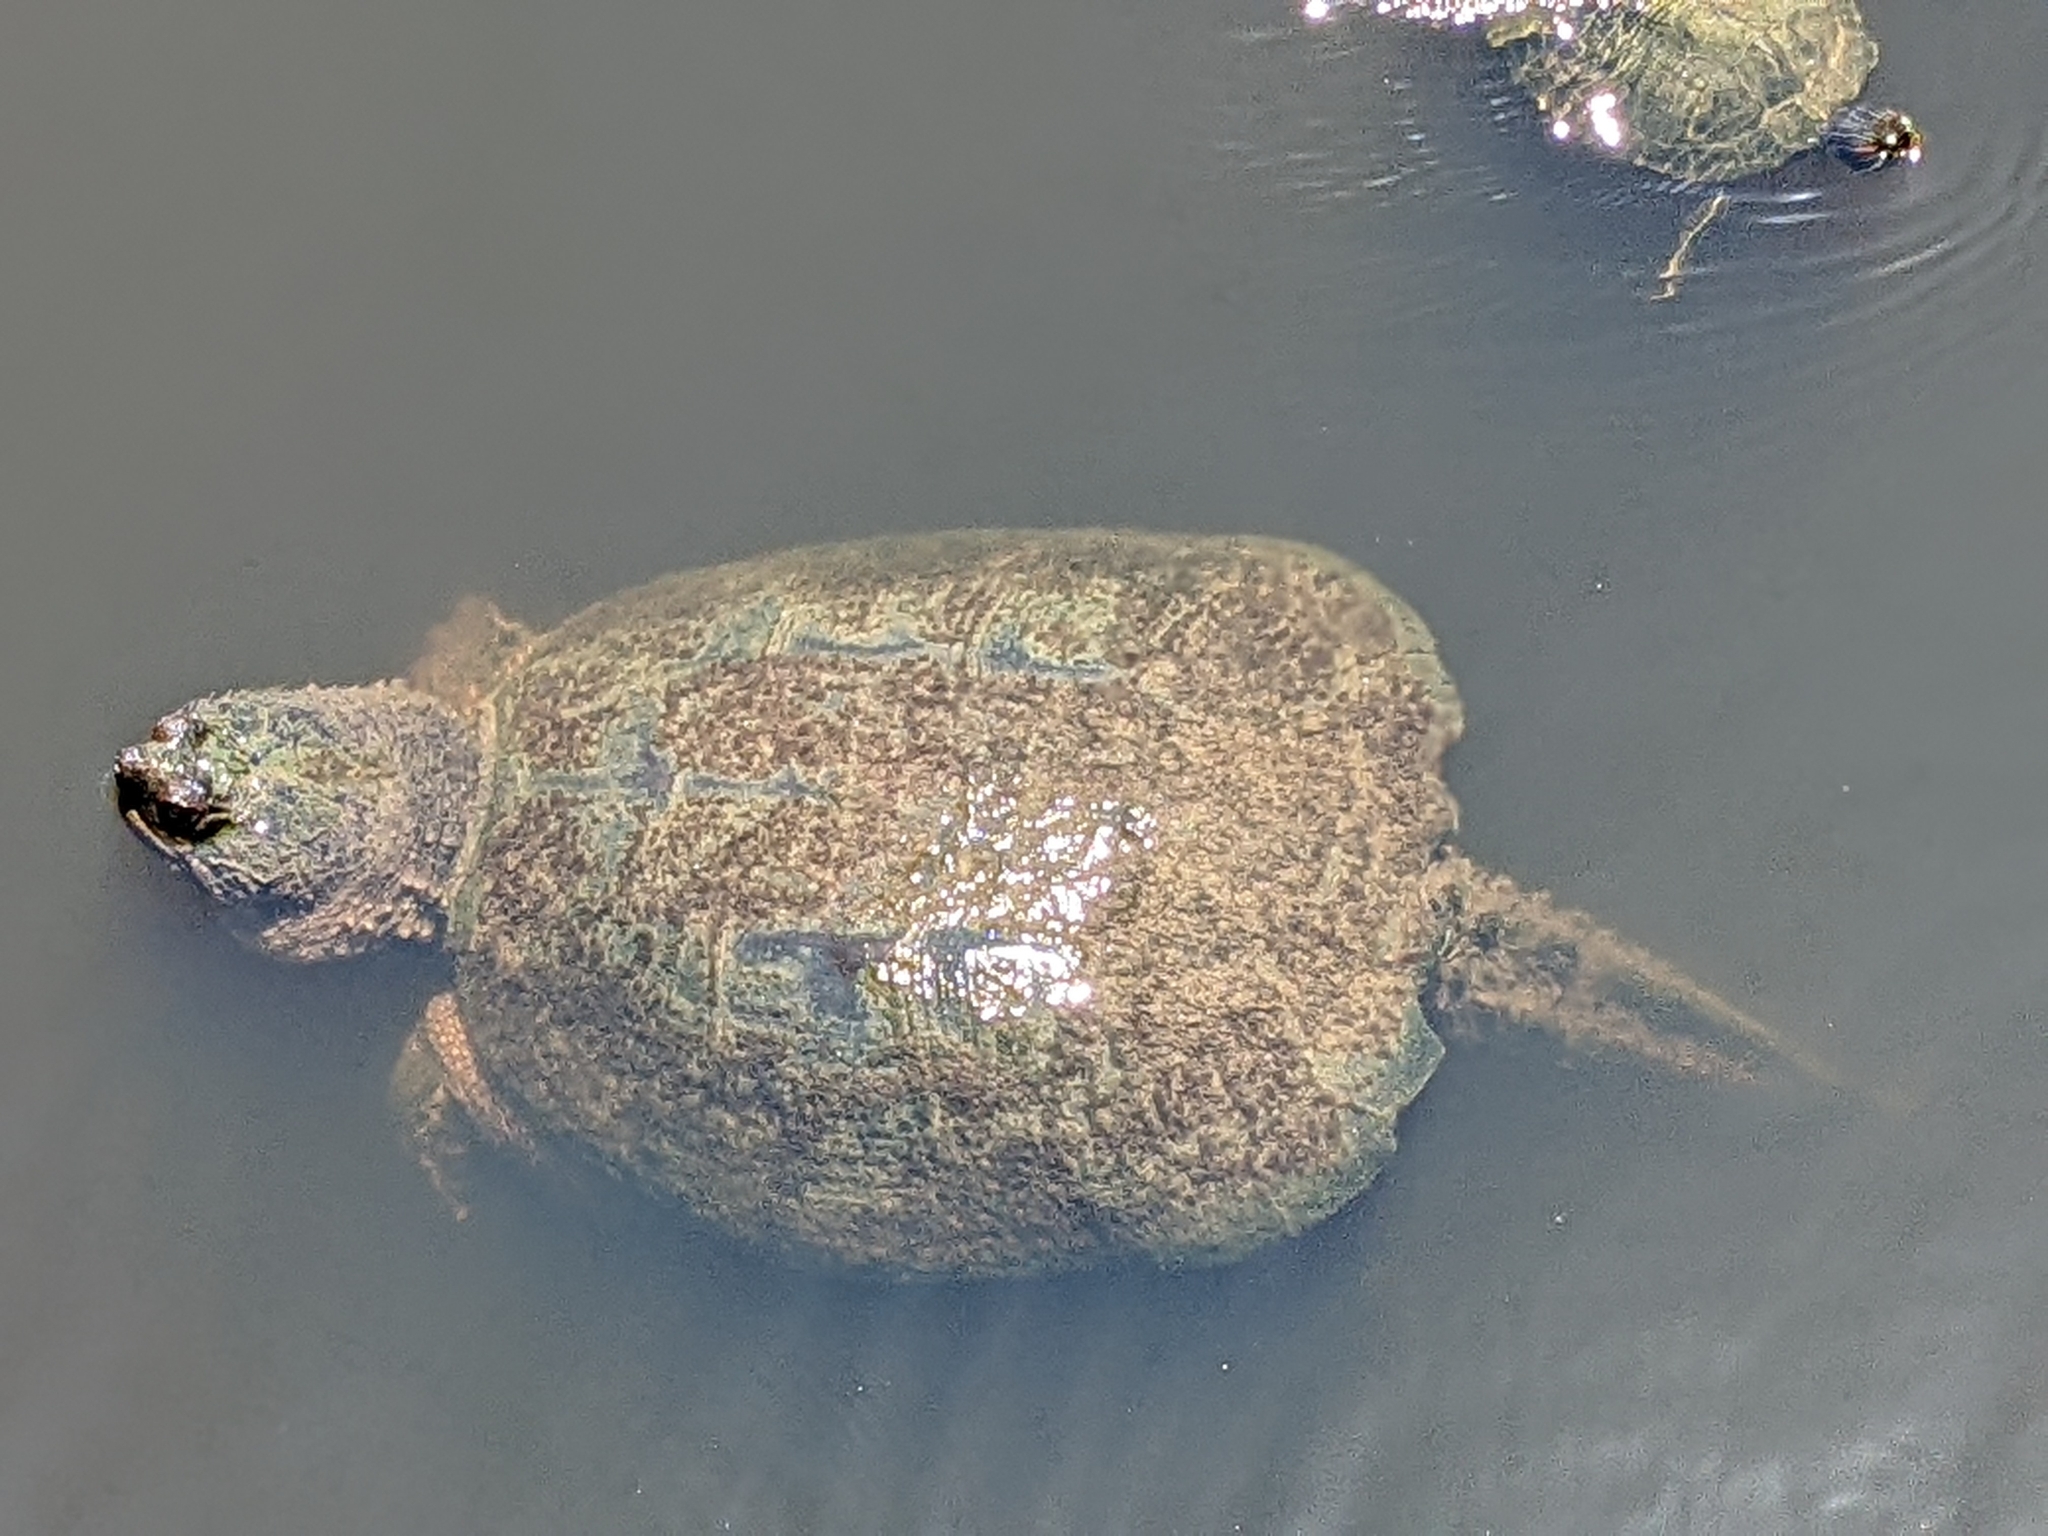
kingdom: Animalia
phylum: Chordata
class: Testudines
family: Chelydridae
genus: Chelydra
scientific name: Chelydra serpentina
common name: Common snapping turtle
